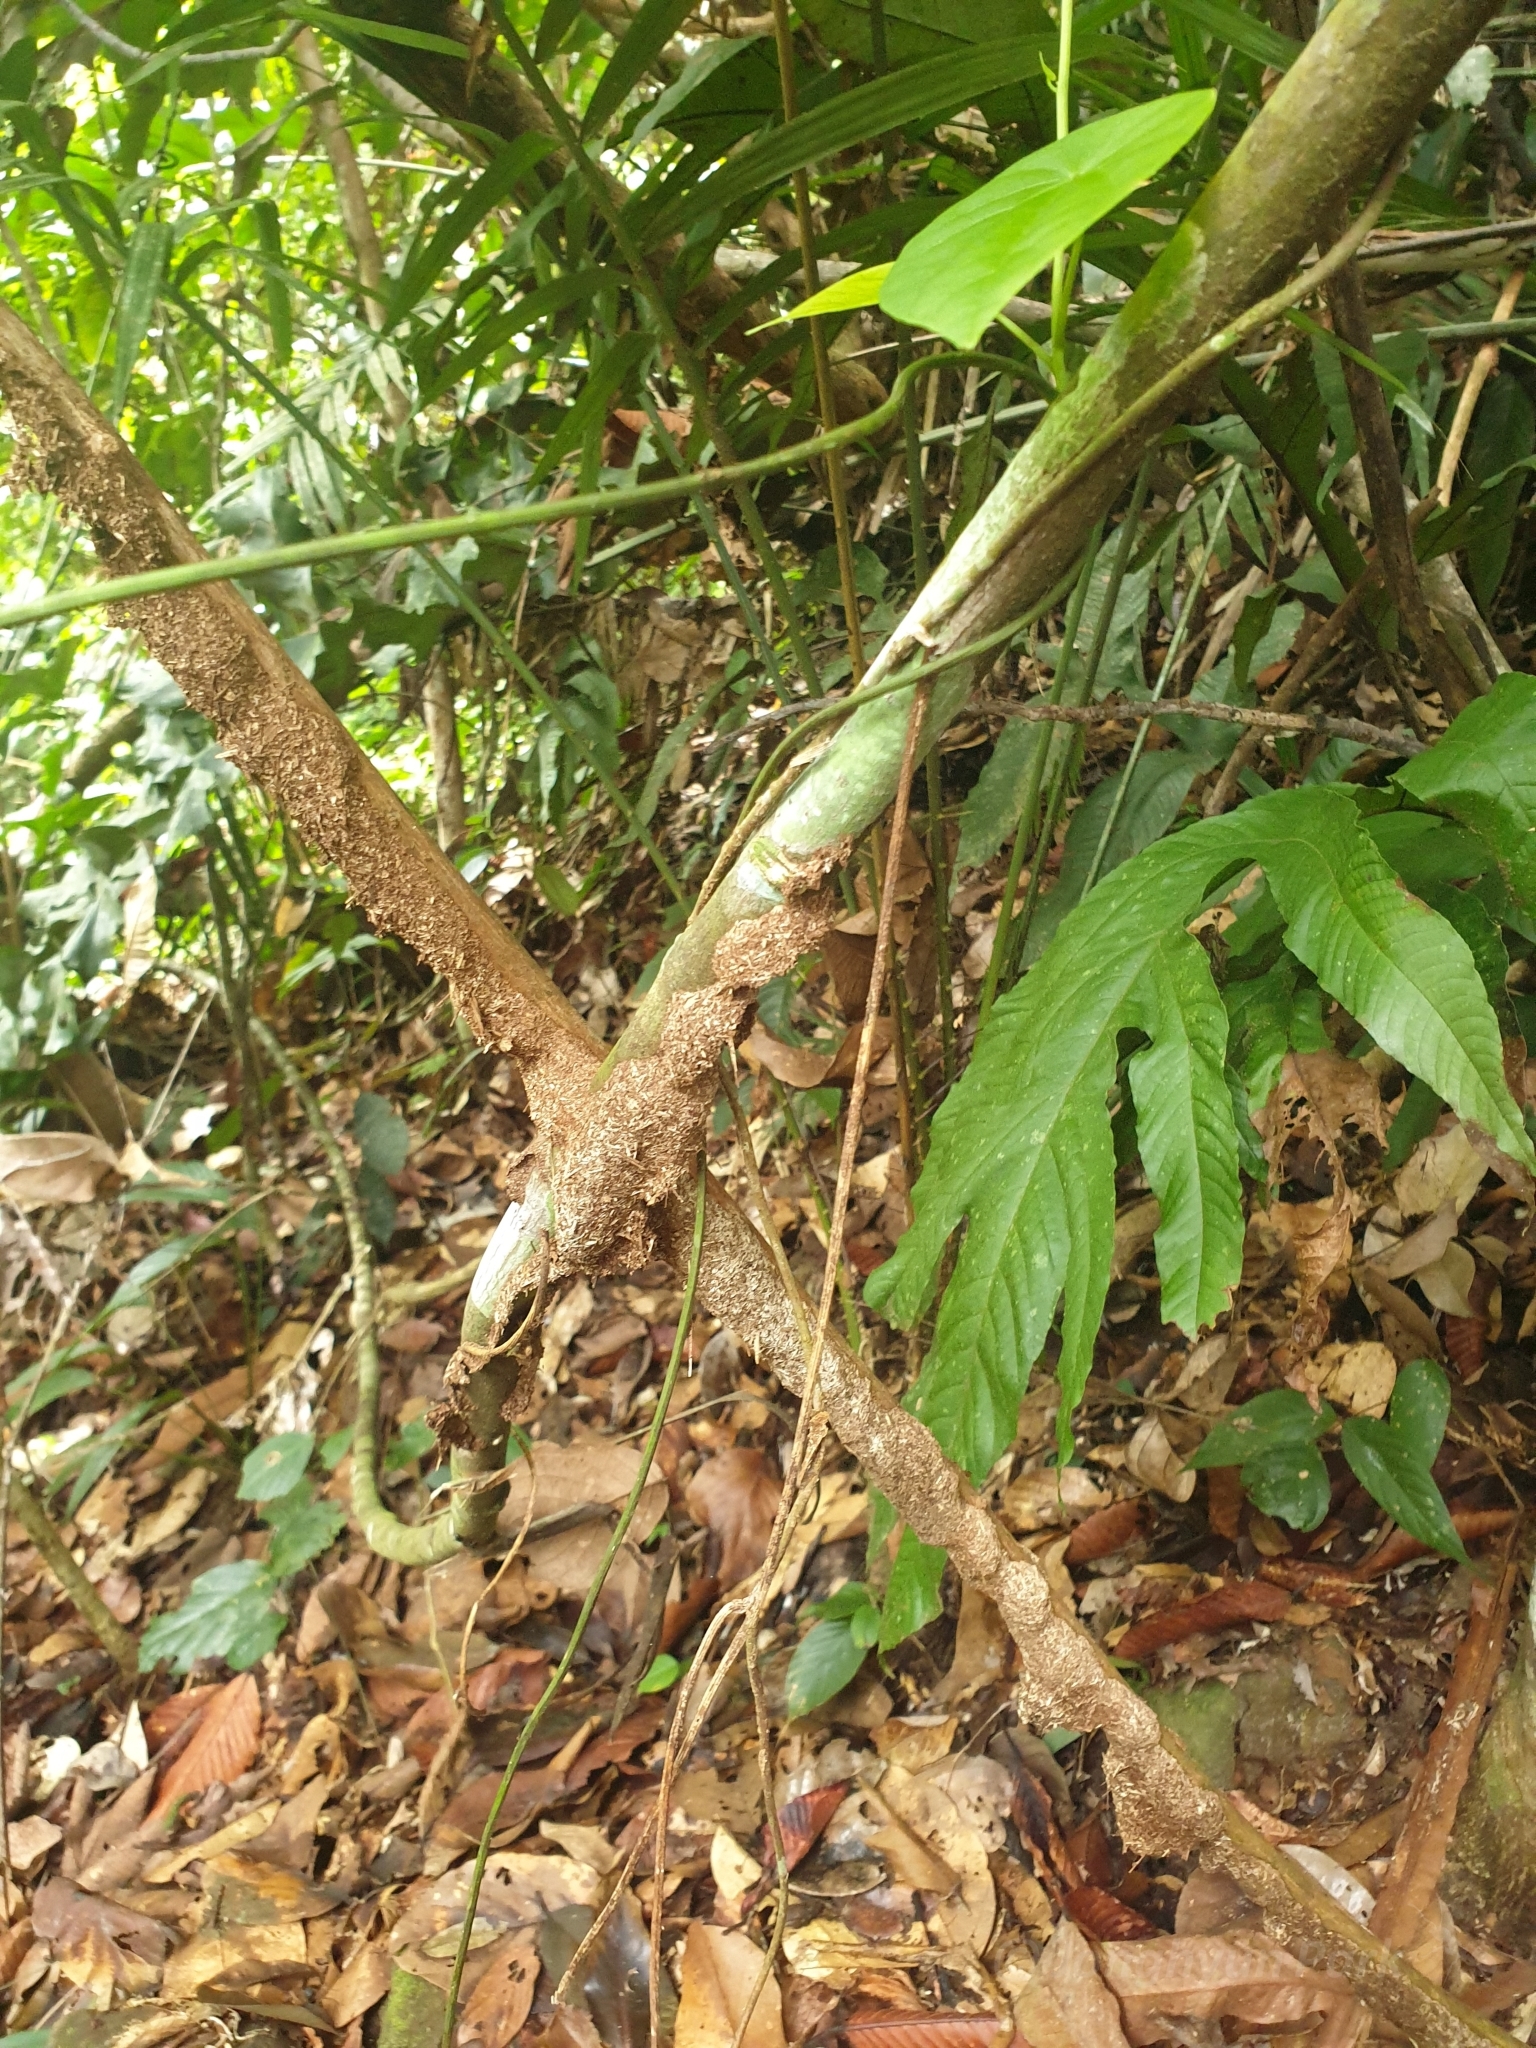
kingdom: Animalia
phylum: Arthropoda
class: Insecta
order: Hymenoptera
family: Formicidae
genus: Camponotus
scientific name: Camponotus rufifemur
